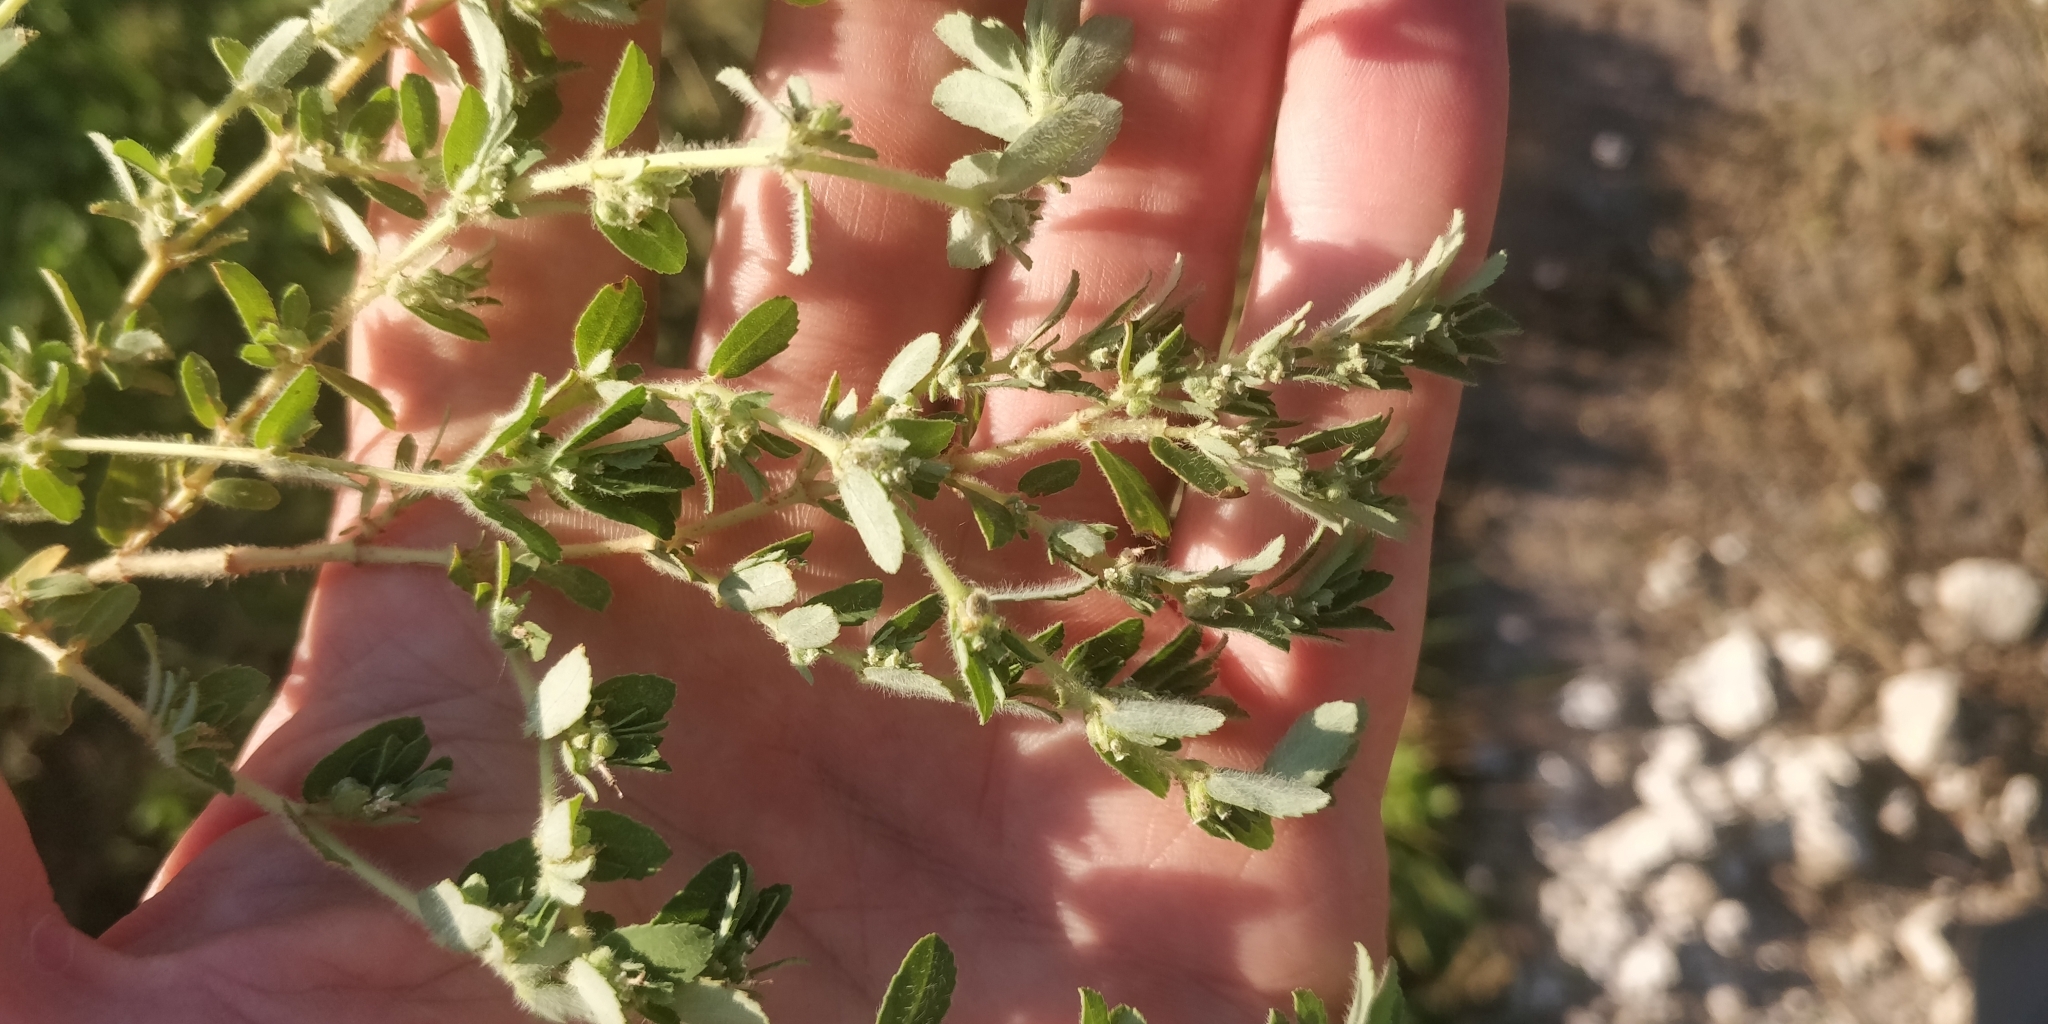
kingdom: Plantae
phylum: Tracheophyta
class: Magnoliopsida
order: Malpighiales
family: Euphorbiaceae
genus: Euphorbia
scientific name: Euphorbia stictospora
